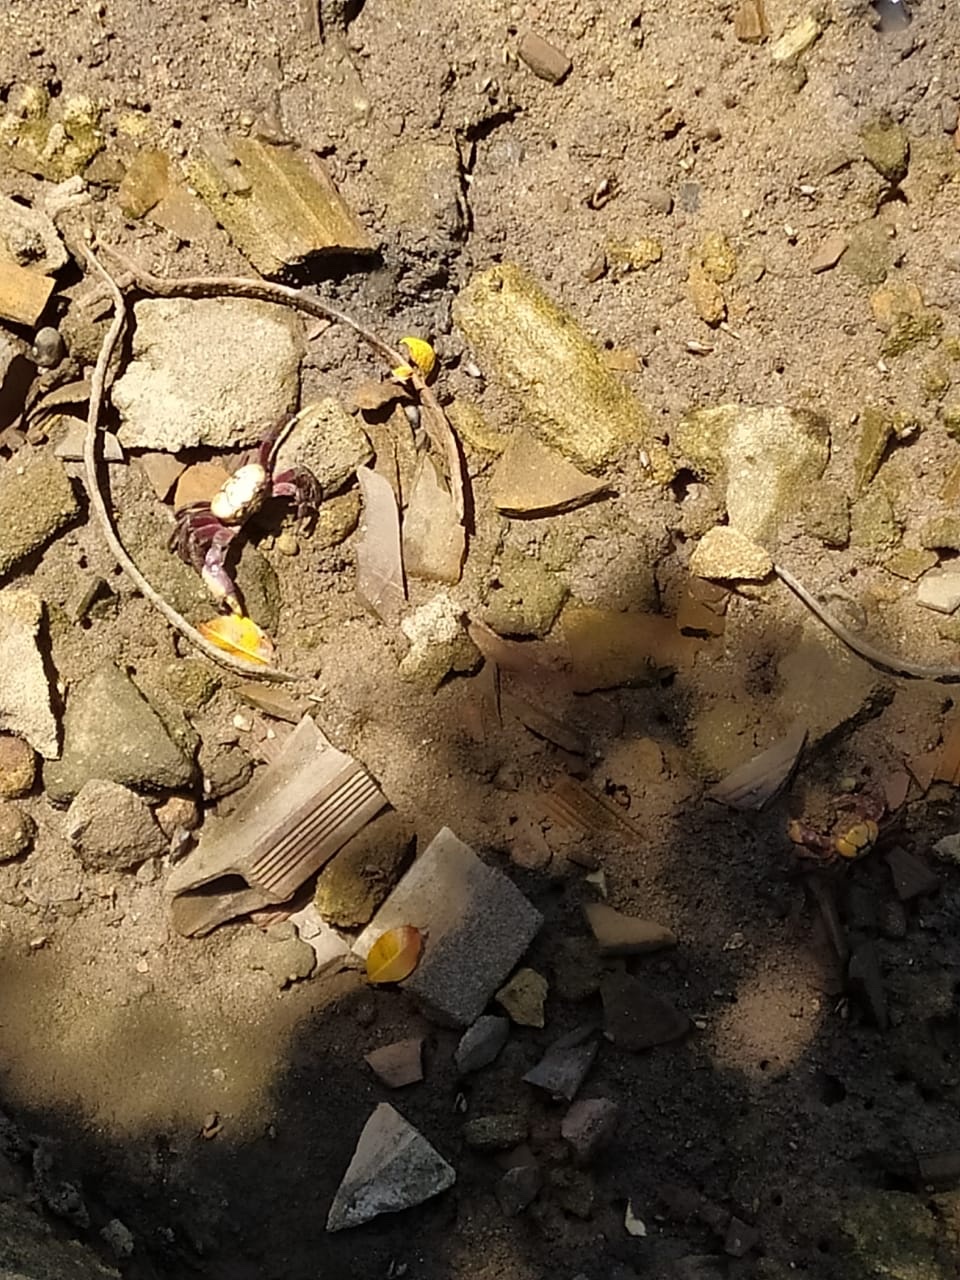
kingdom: Animalia
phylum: Arthropoda
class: Malacostraca
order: Decapoda
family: Ocypodidae
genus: Ucides
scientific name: Ucides cordatus
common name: Swamp ghost crab
